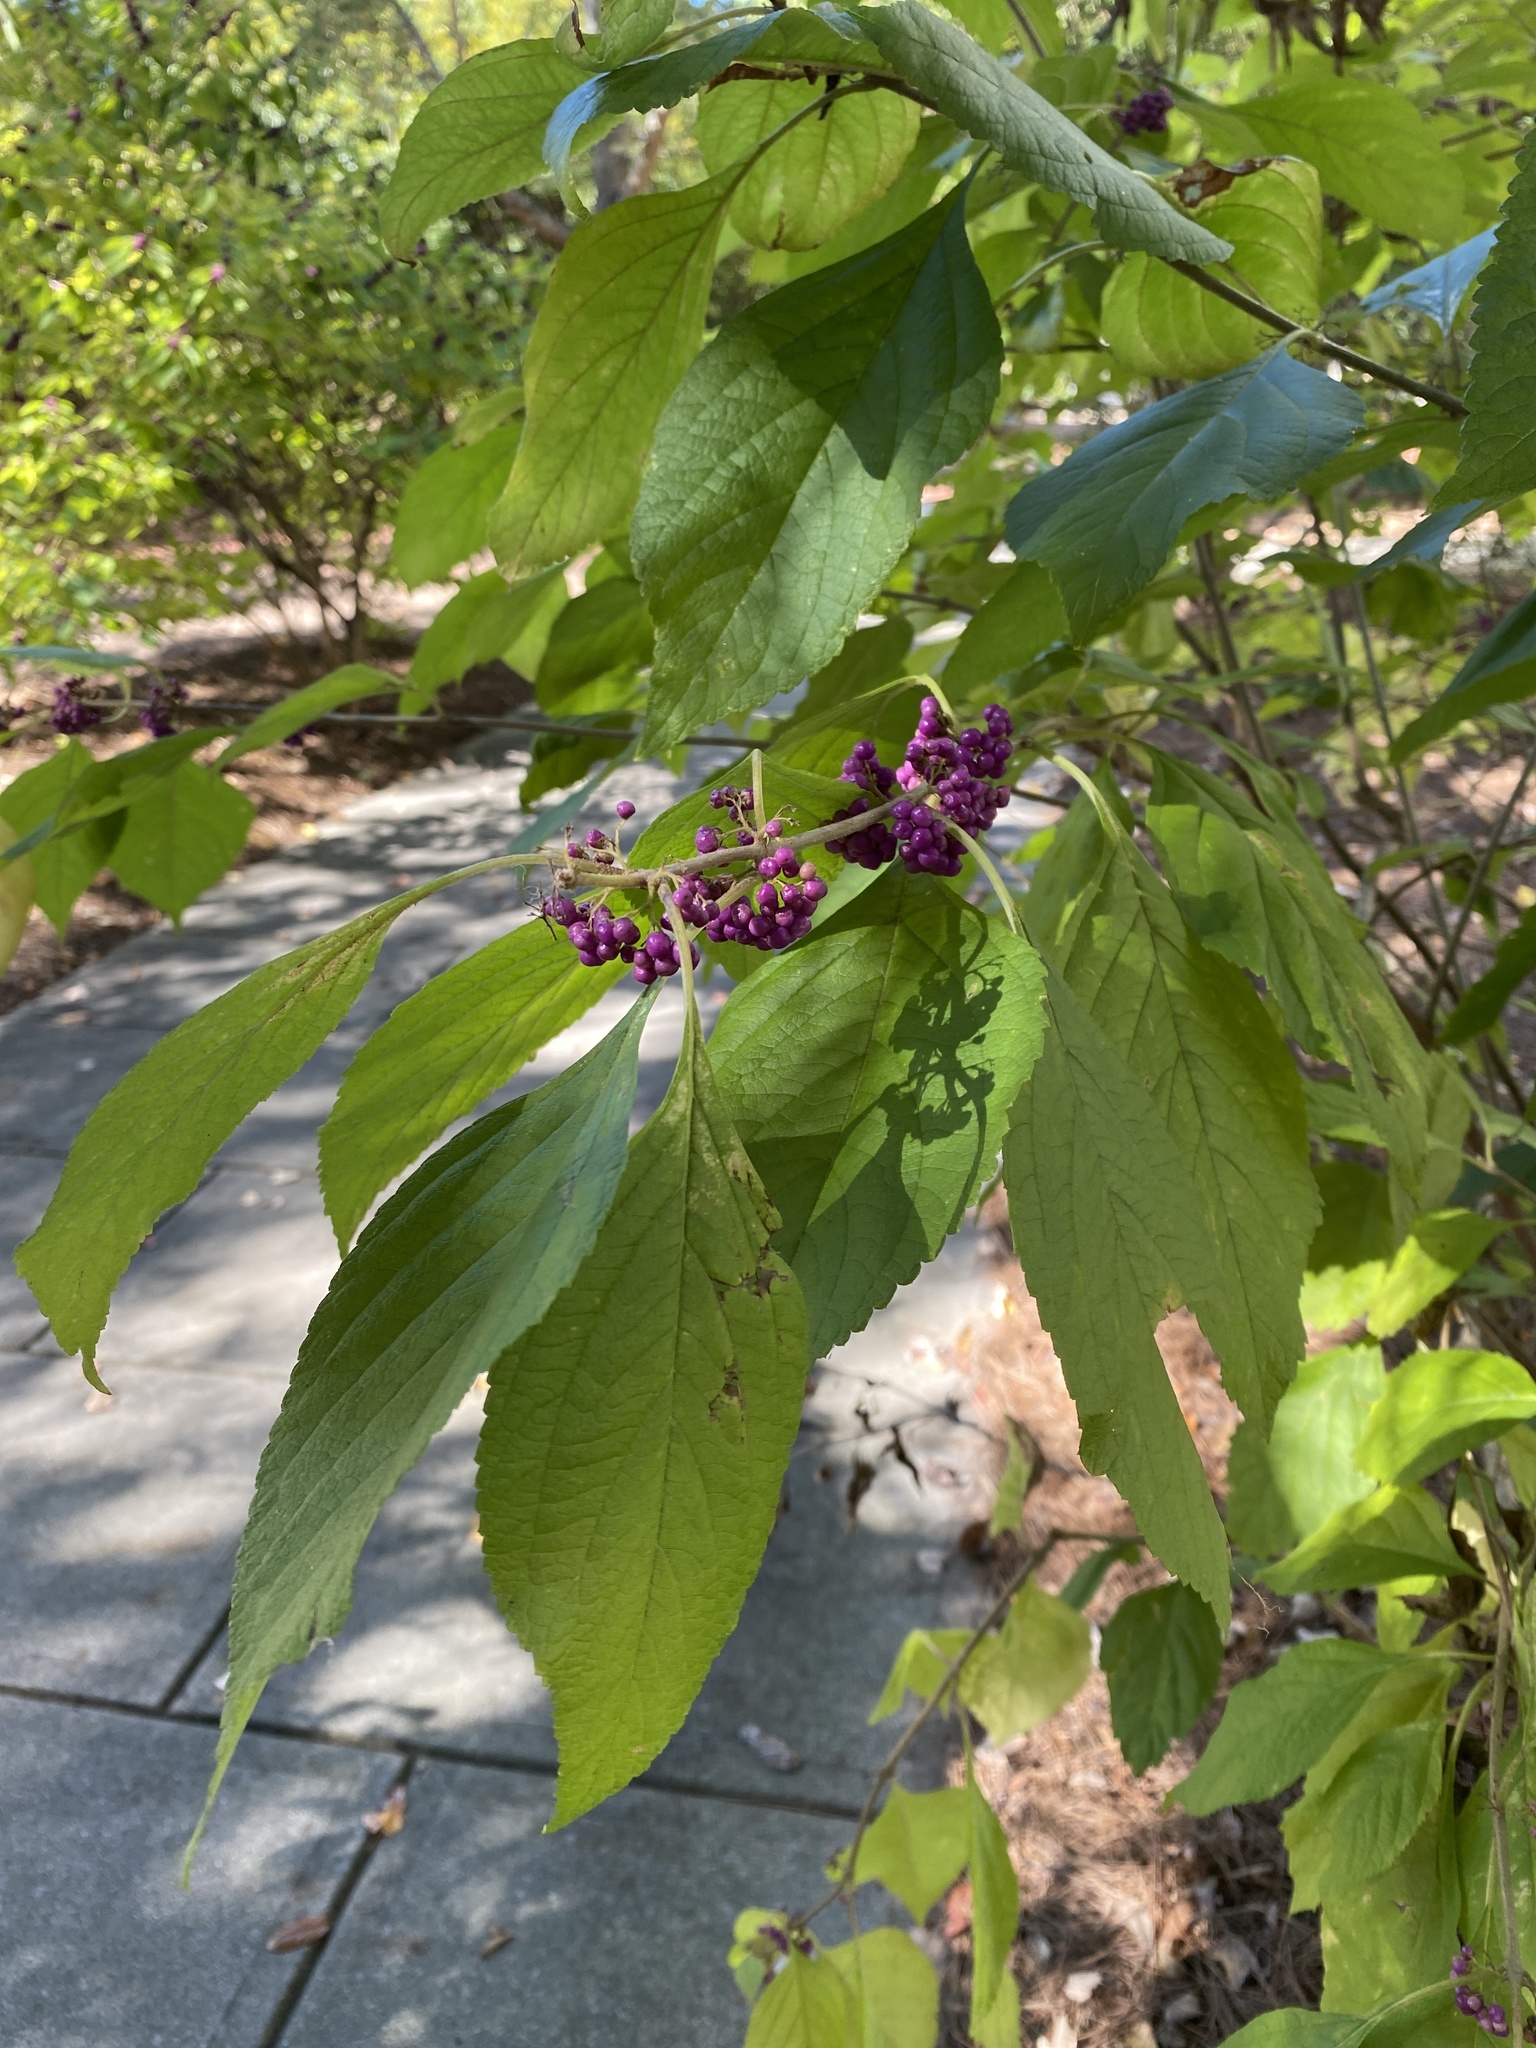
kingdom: Plantae
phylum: Tracheophyta
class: Magnoliopsida
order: Lamiales
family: Lamiaceae
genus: Callicarpa
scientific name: Callicarpa americana
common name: American beautyberry
